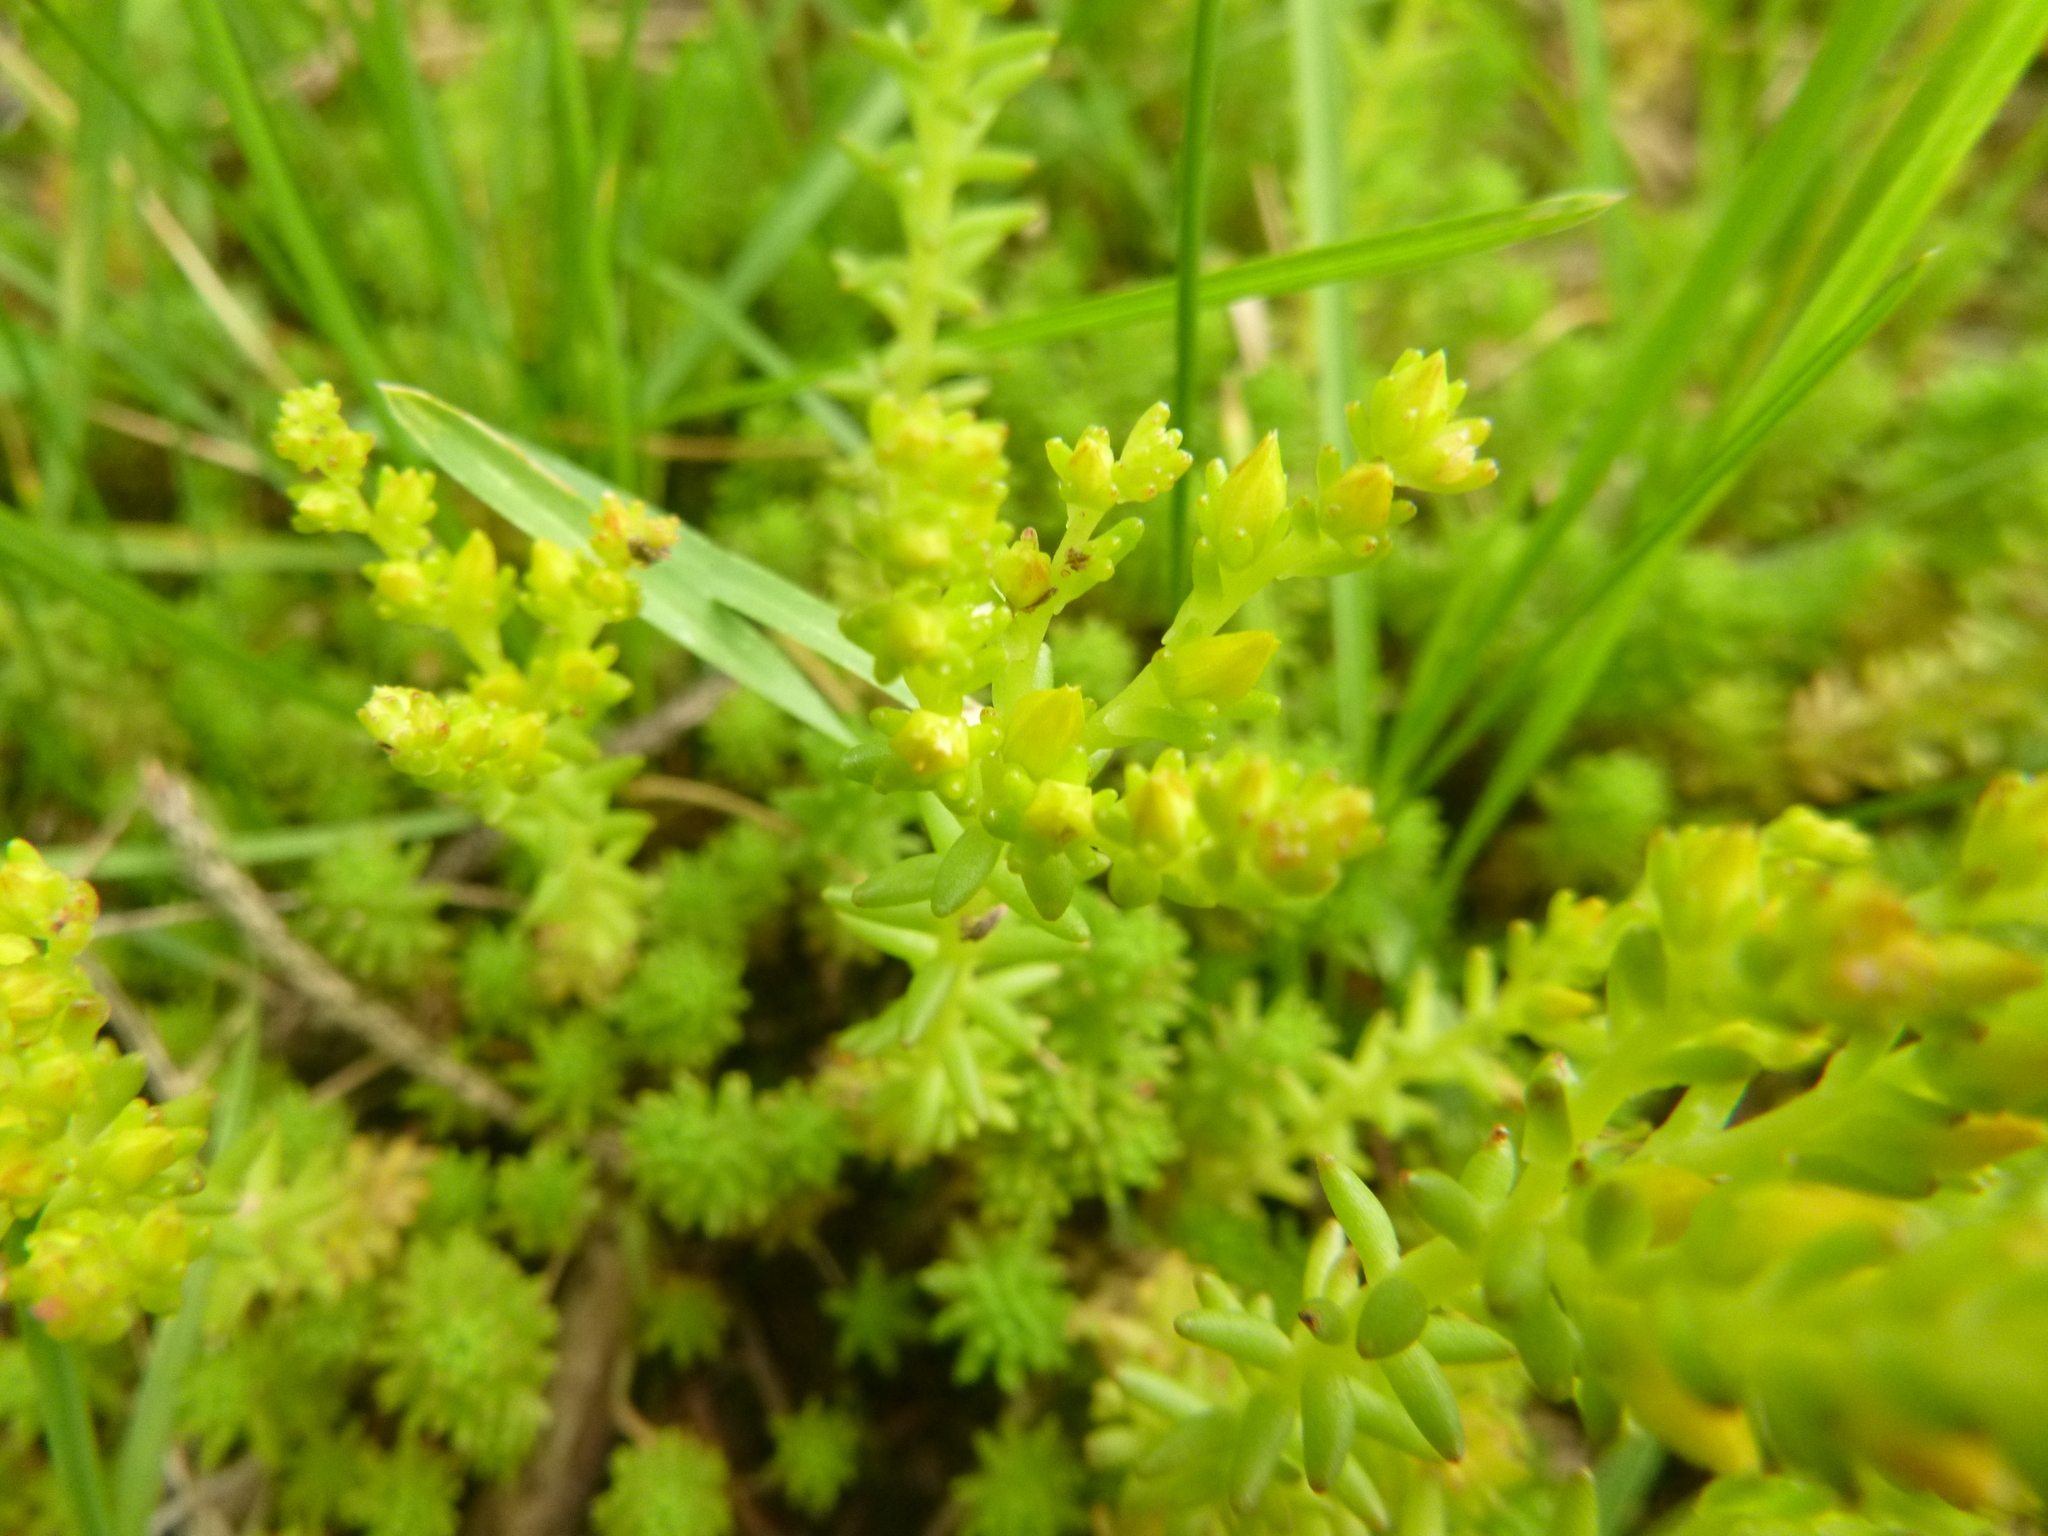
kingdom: Plantae
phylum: Tracheophyta
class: Magnoliopsida
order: Saxifragales
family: Crassulaceae
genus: Sedum
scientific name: Sedum sexangulare
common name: Tasteless stonecrop
